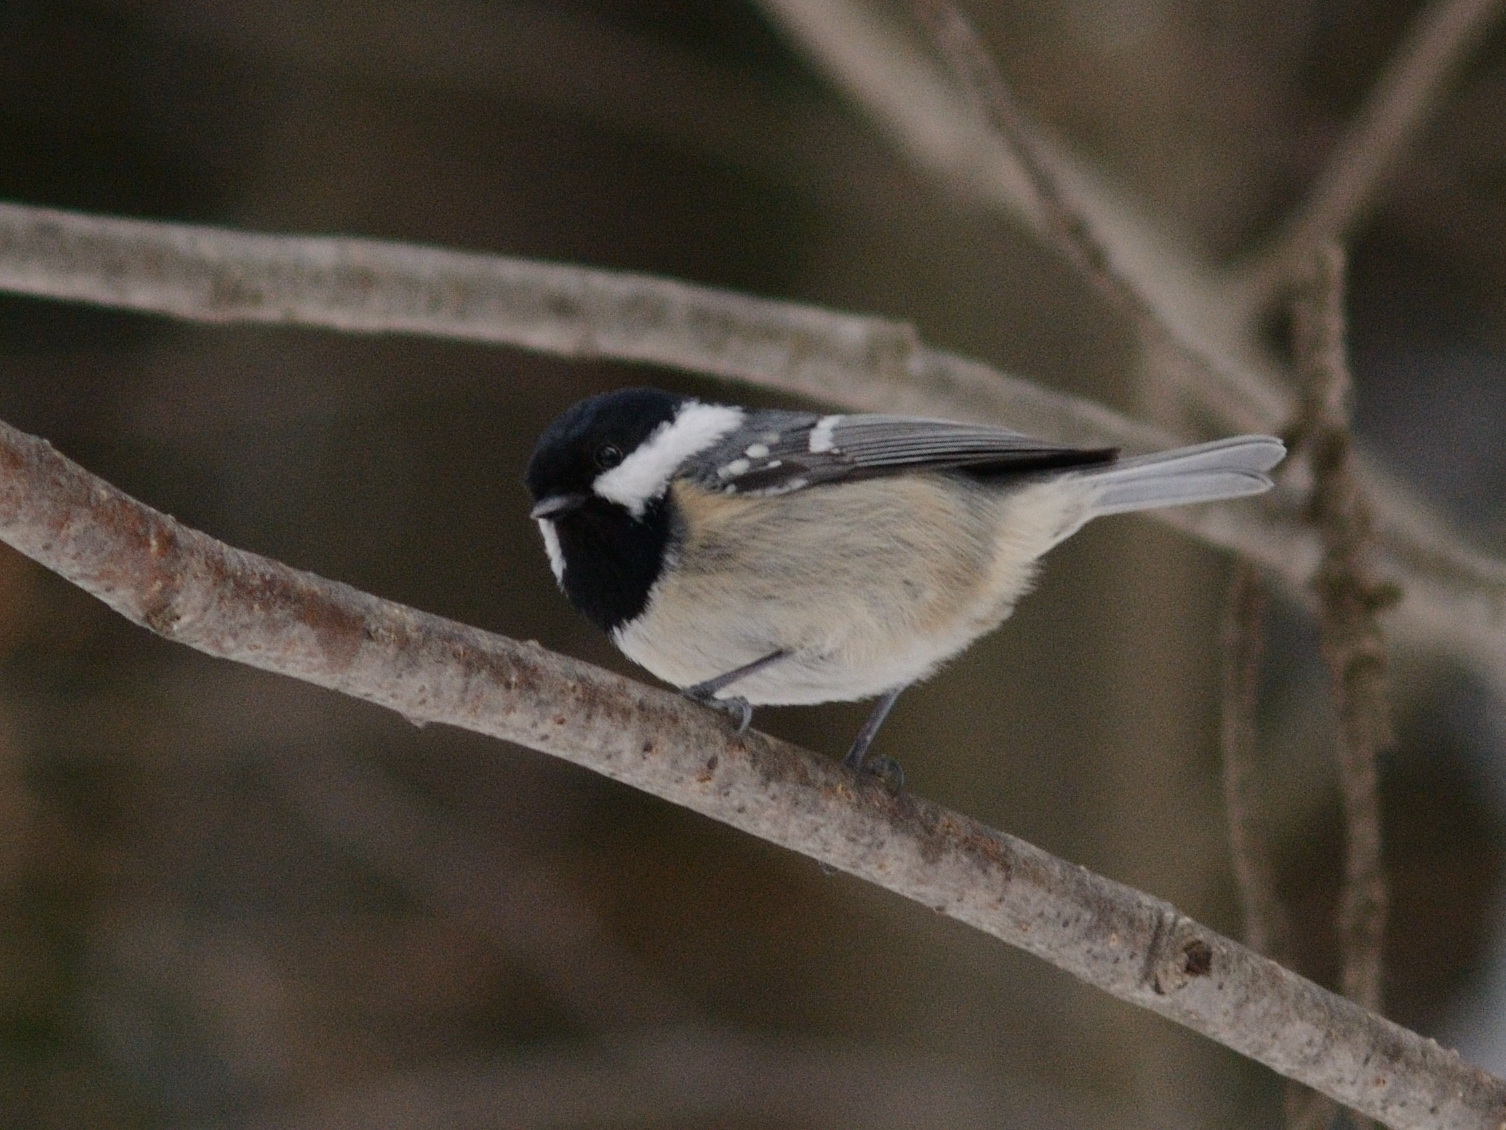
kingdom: Animalia
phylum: Chordata
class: Aves
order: Passeriformes
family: Paridae
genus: Periparus
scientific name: Periparus ater
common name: Coal tit
